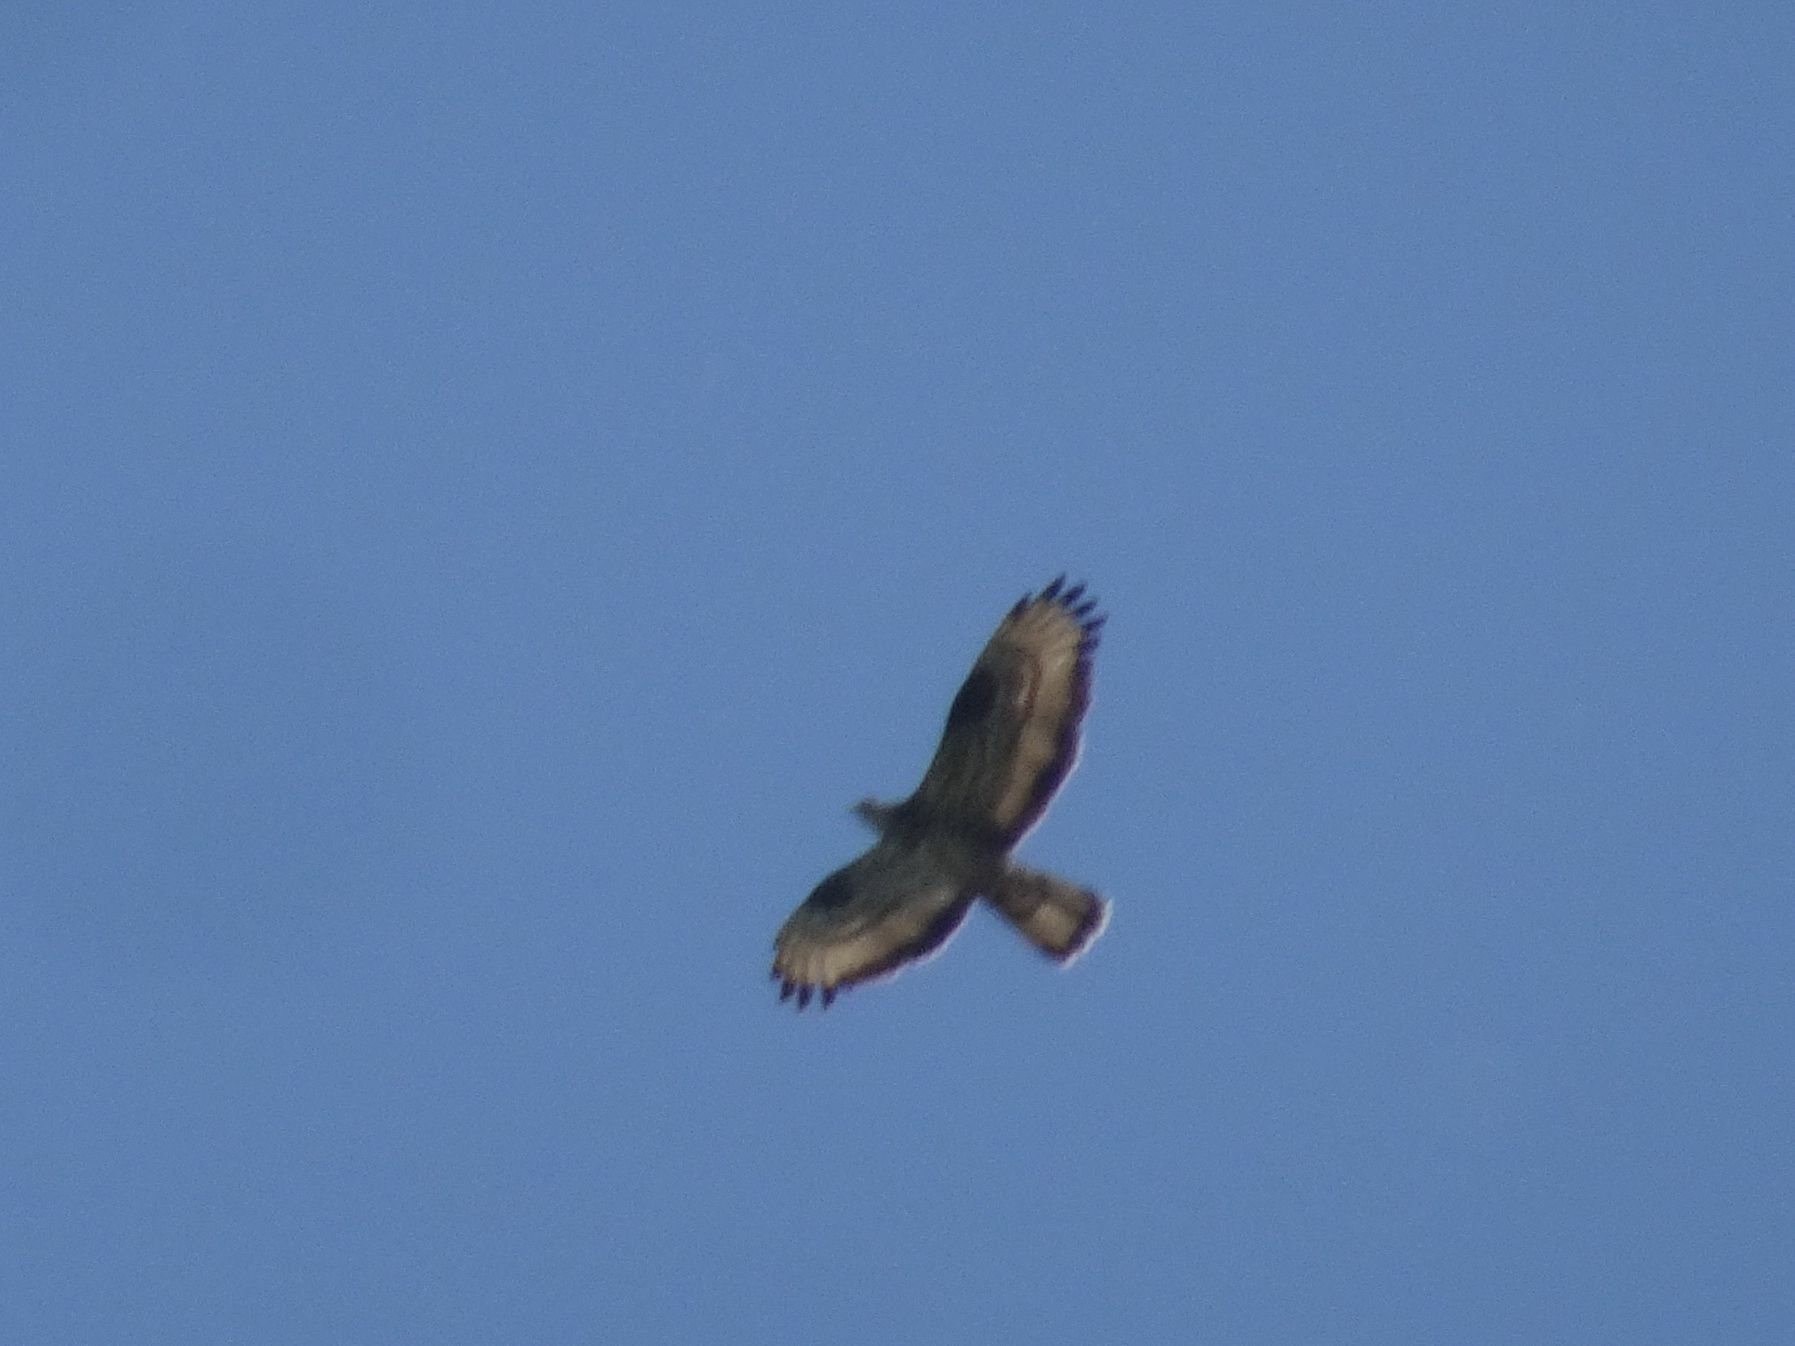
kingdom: Animalia
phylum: Chordata
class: Aves
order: Accipitriformes
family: Accipitridae
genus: Pernis
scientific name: Pernis apivorus
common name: European honey buzzard
